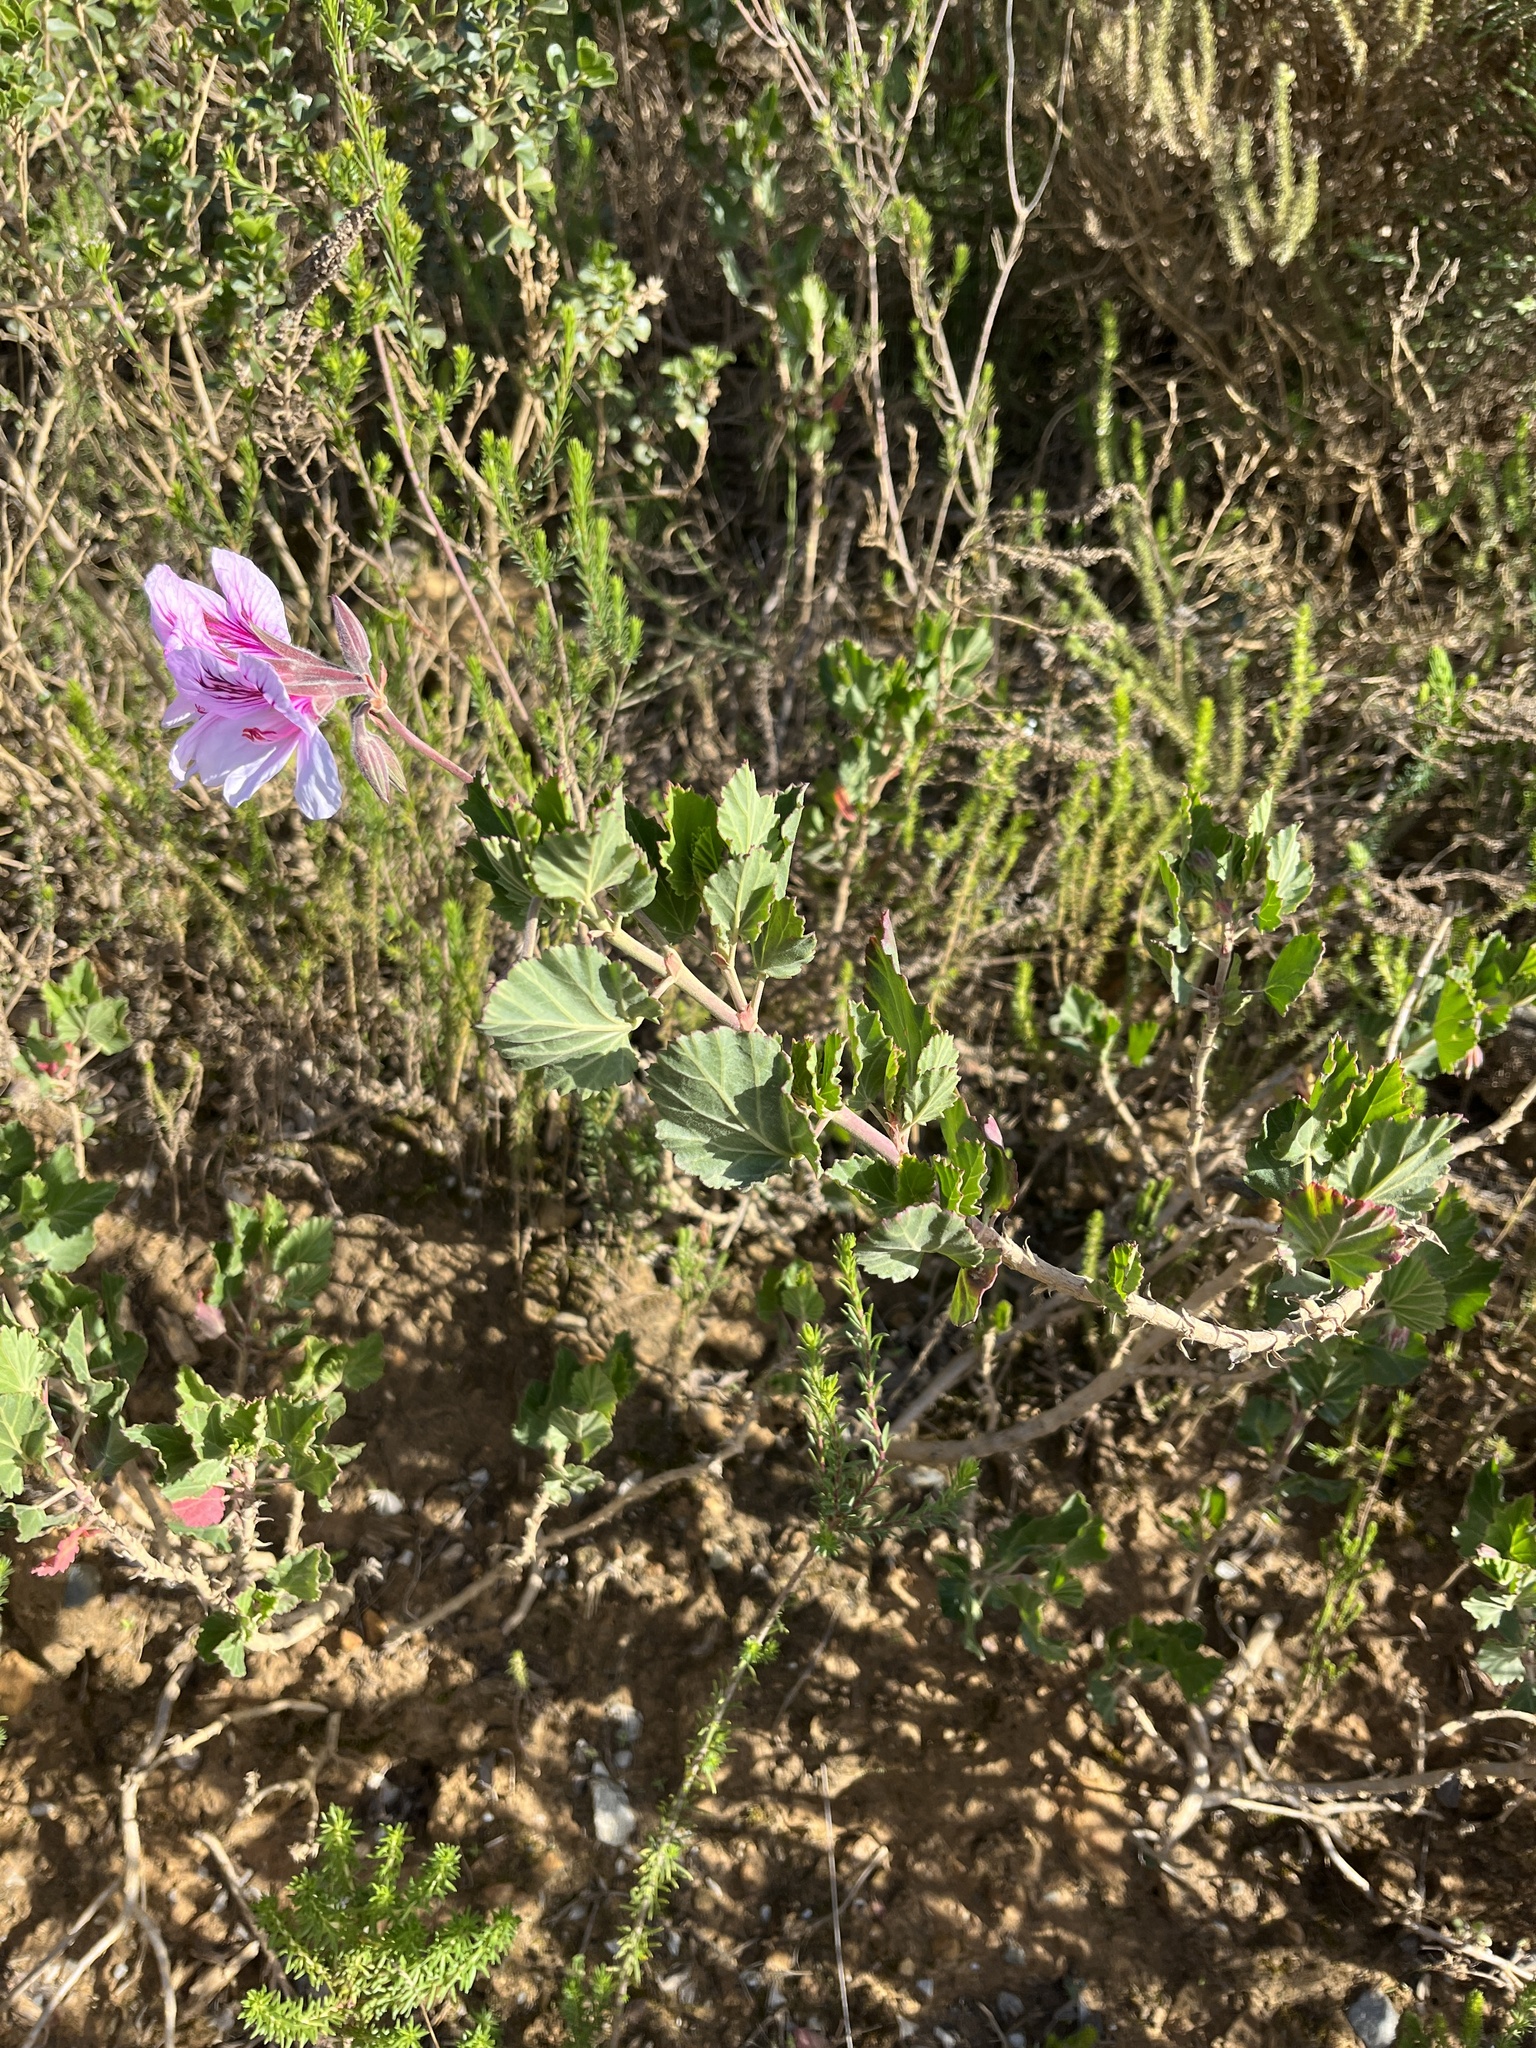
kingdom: Plantae
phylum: Tracheophyta
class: Magnoliopsida
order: Geraniales
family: Geraniaceae
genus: Pelargonium
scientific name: Pelargonium betulinum
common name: Birch-leaf pelargonium
